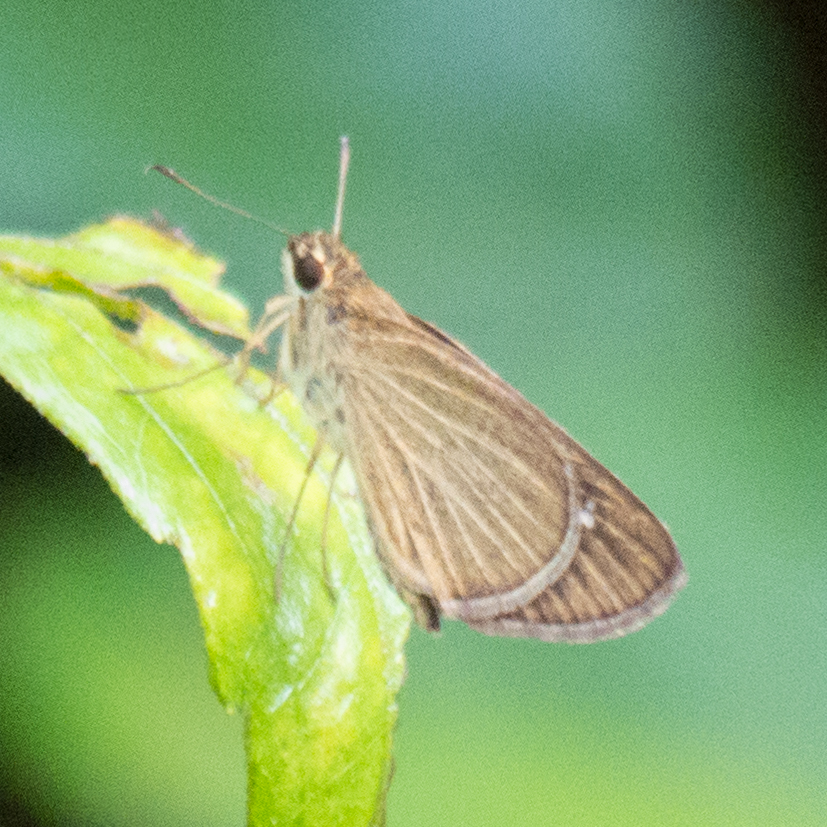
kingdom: Animalia
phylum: Arthropoda
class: Insecta
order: Lepidoptera
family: Hesperiidae
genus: Suada
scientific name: Suada swerga
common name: Grass bob
